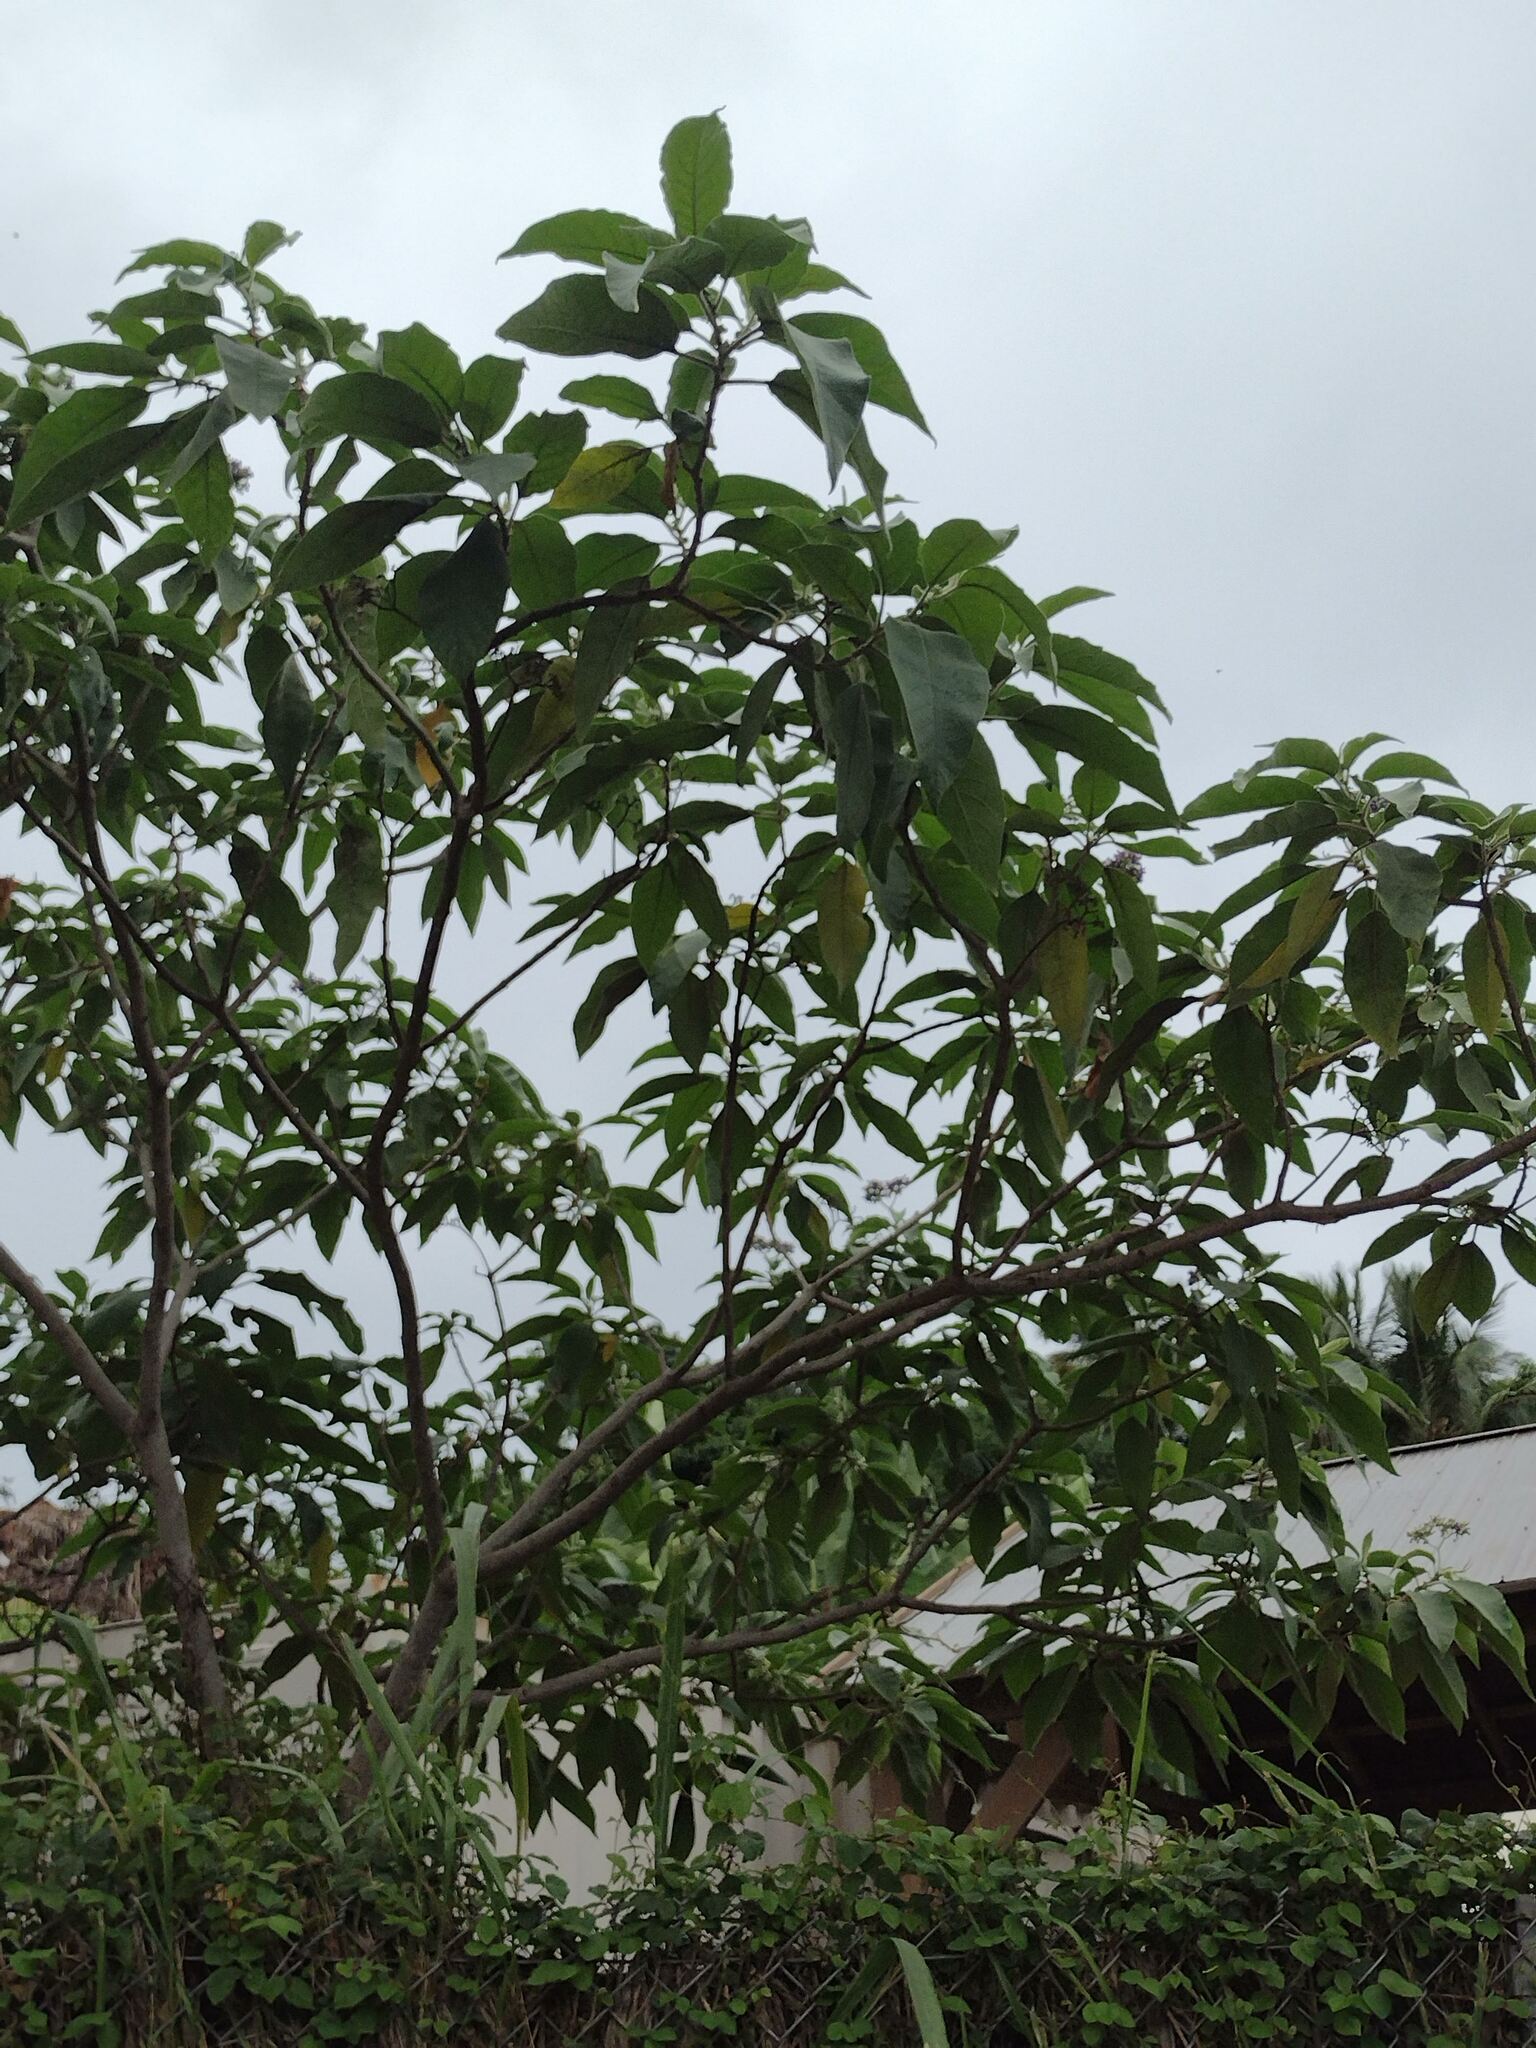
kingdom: Plantae
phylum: Tracheophyta
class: Magnoliopsida
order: Solanales
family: Solanaceae
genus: Solanum
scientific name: Solanum mauritianum
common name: Earleaf nightshade
